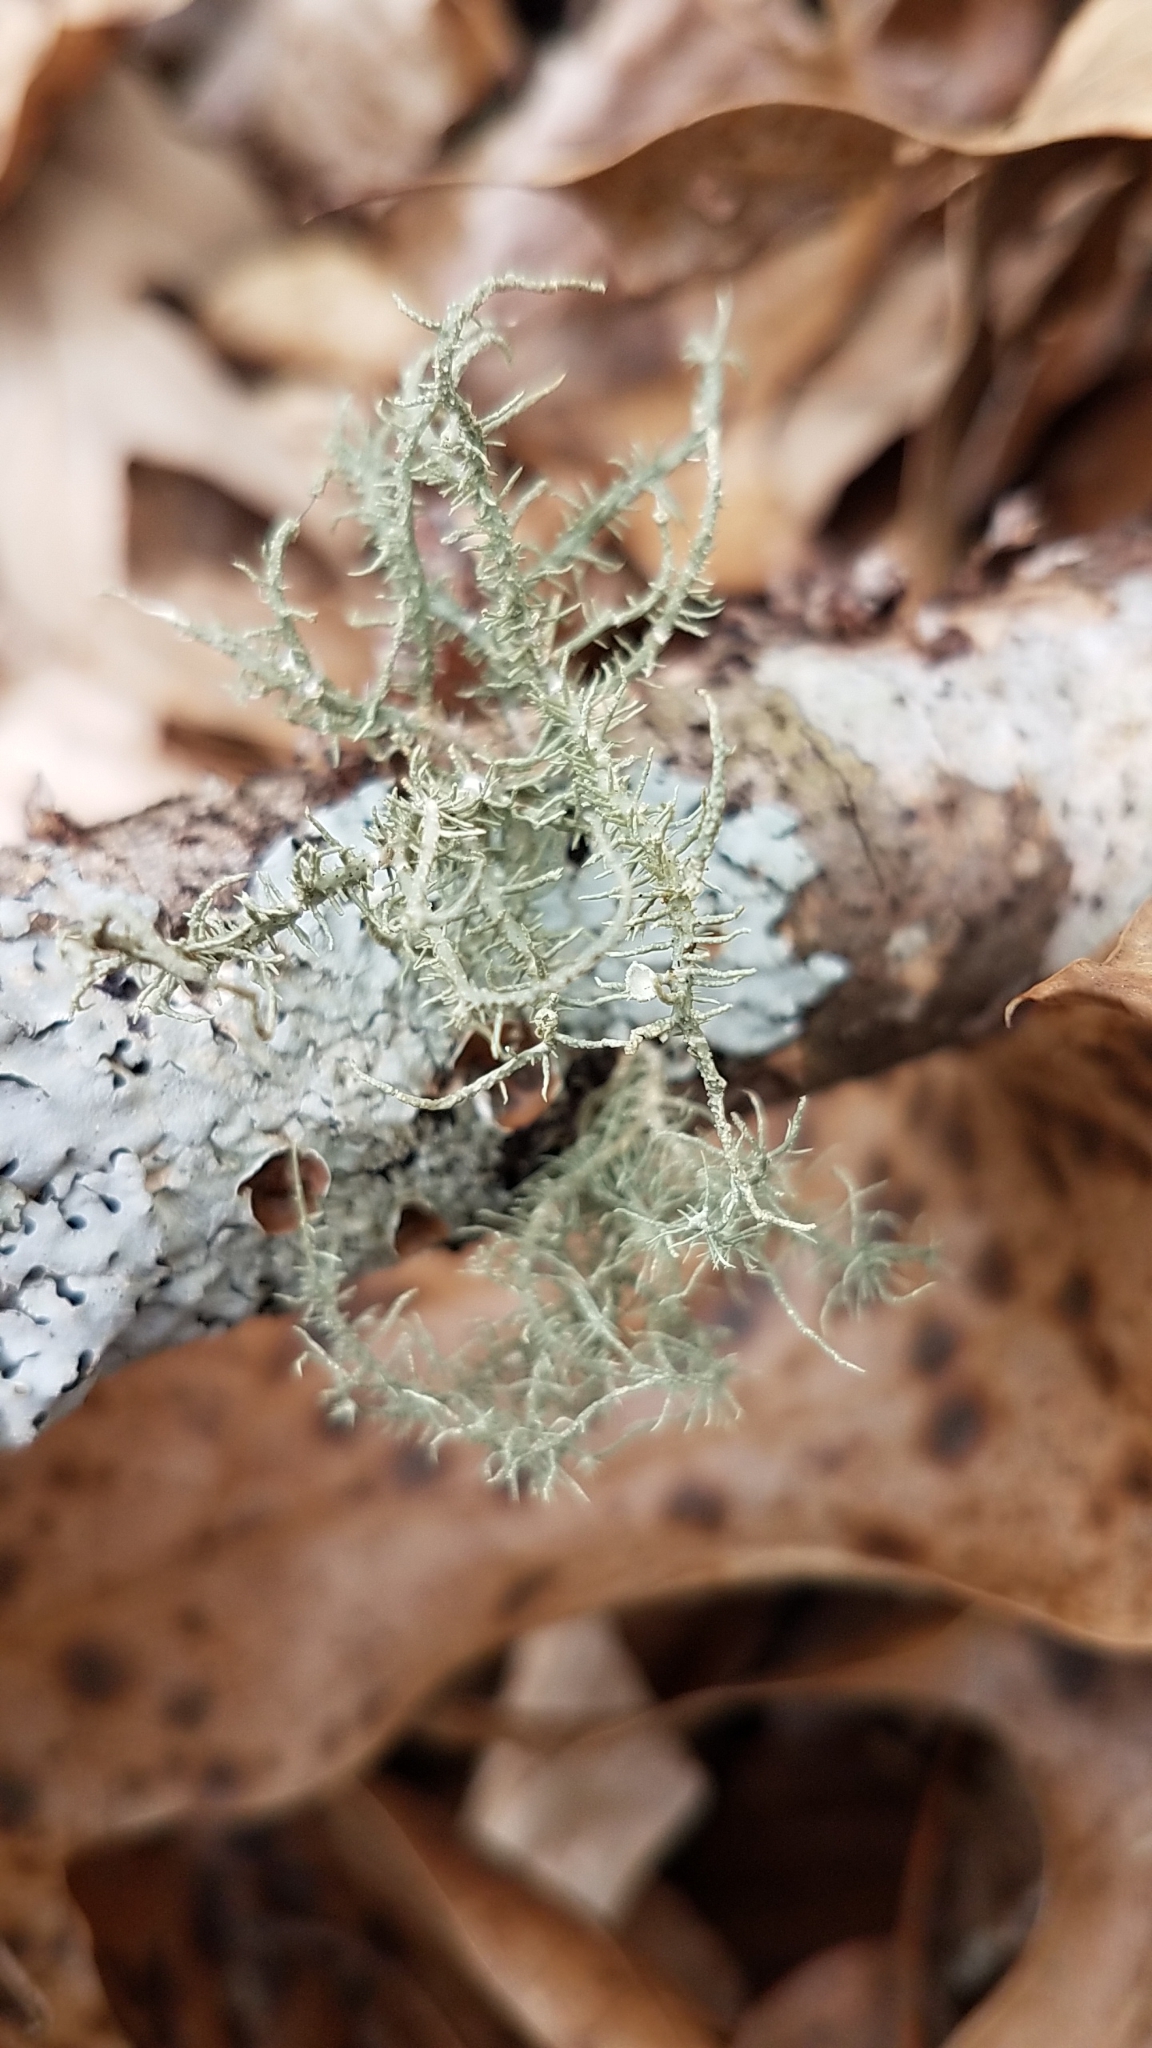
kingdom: Fungi
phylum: Ascomycota
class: Lecanoromycetes
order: Lecanorales
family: Parmeliaceae
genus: Usnea
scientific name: Usnea strigosa
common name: Bushy beard lichen
